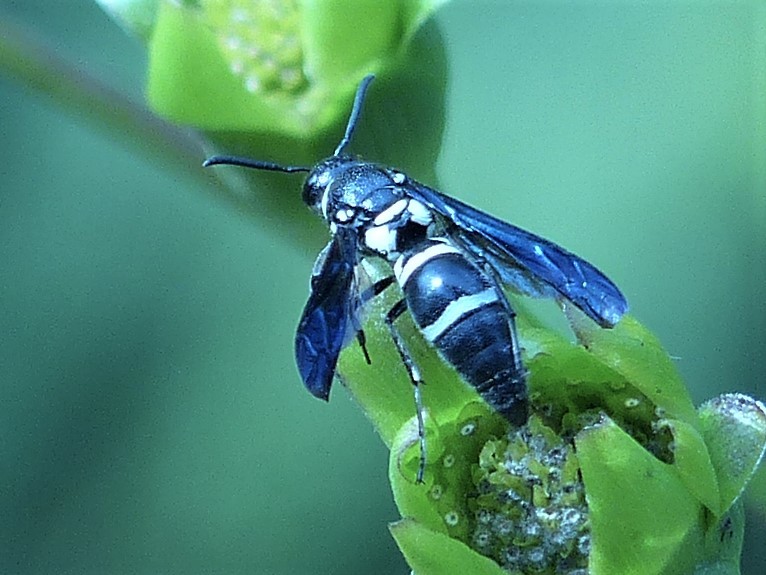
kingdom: Animalia
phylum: Arthropoda
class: Insecta
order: Hymenoptera
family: Eumenidae
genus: Pseudodynerus
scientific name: Pseudodynerus quadrisectus
